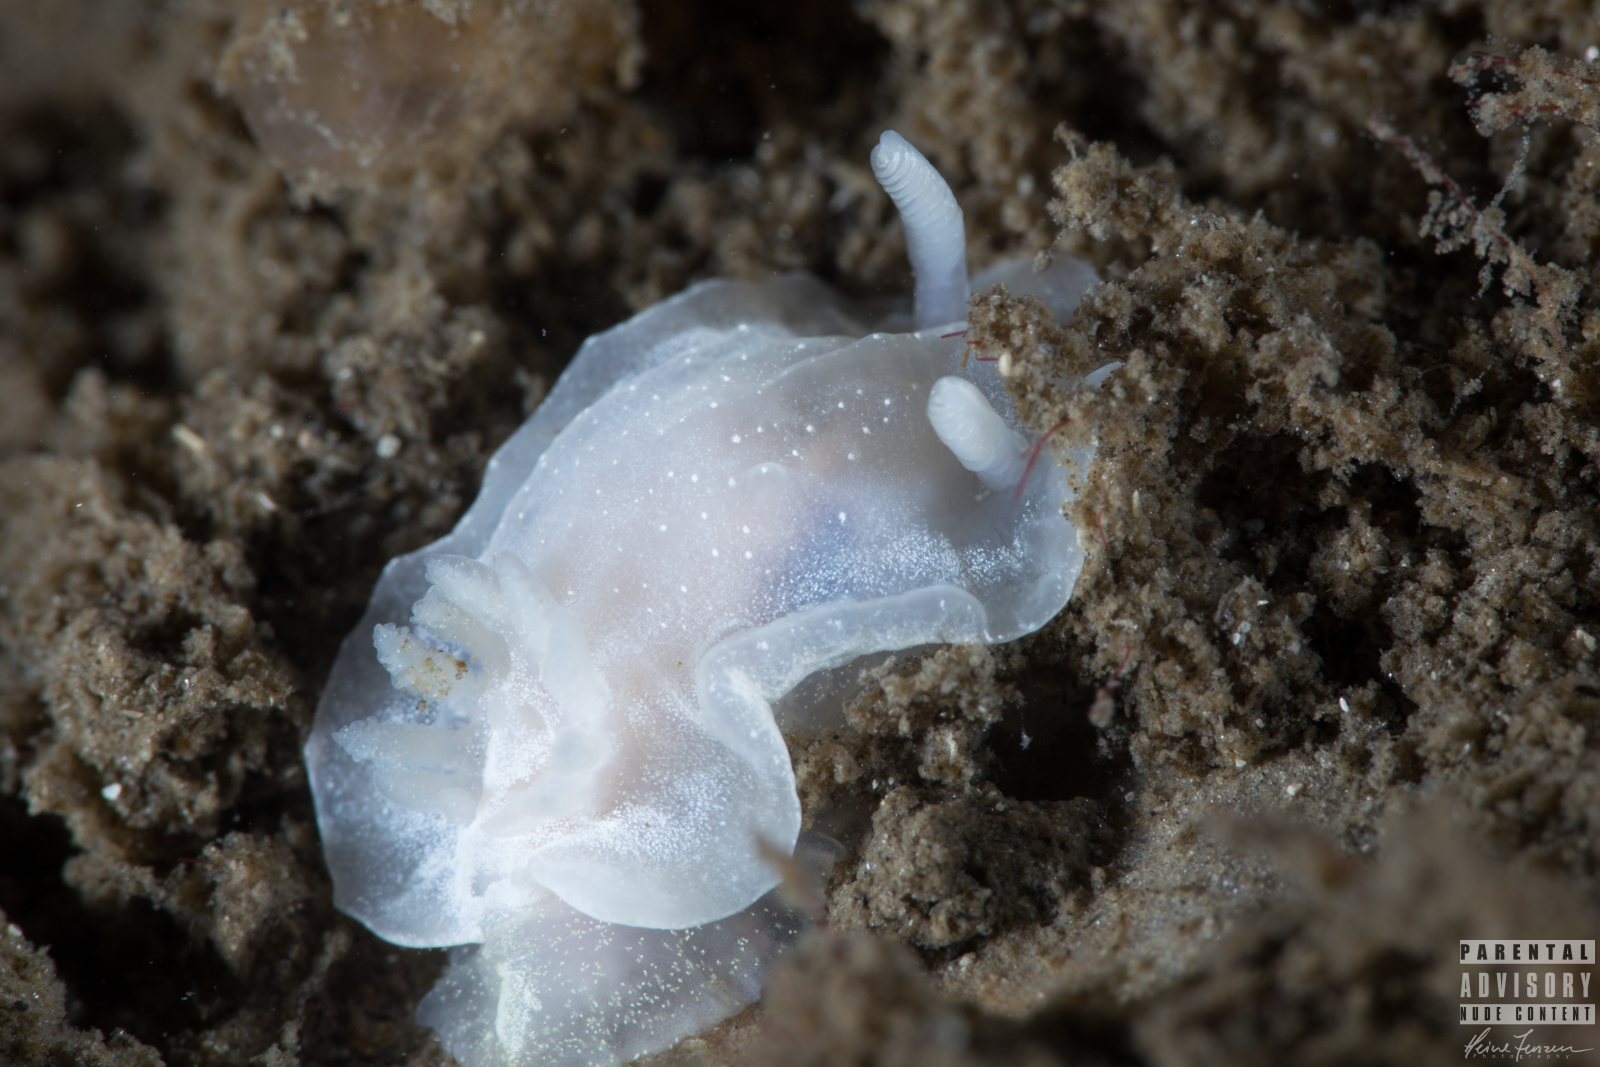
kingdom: Animalia
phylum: Mollusca
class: Gastropoda
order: Nudibranchia
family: Goniodorididae
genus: Okenia
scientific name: Okenia
